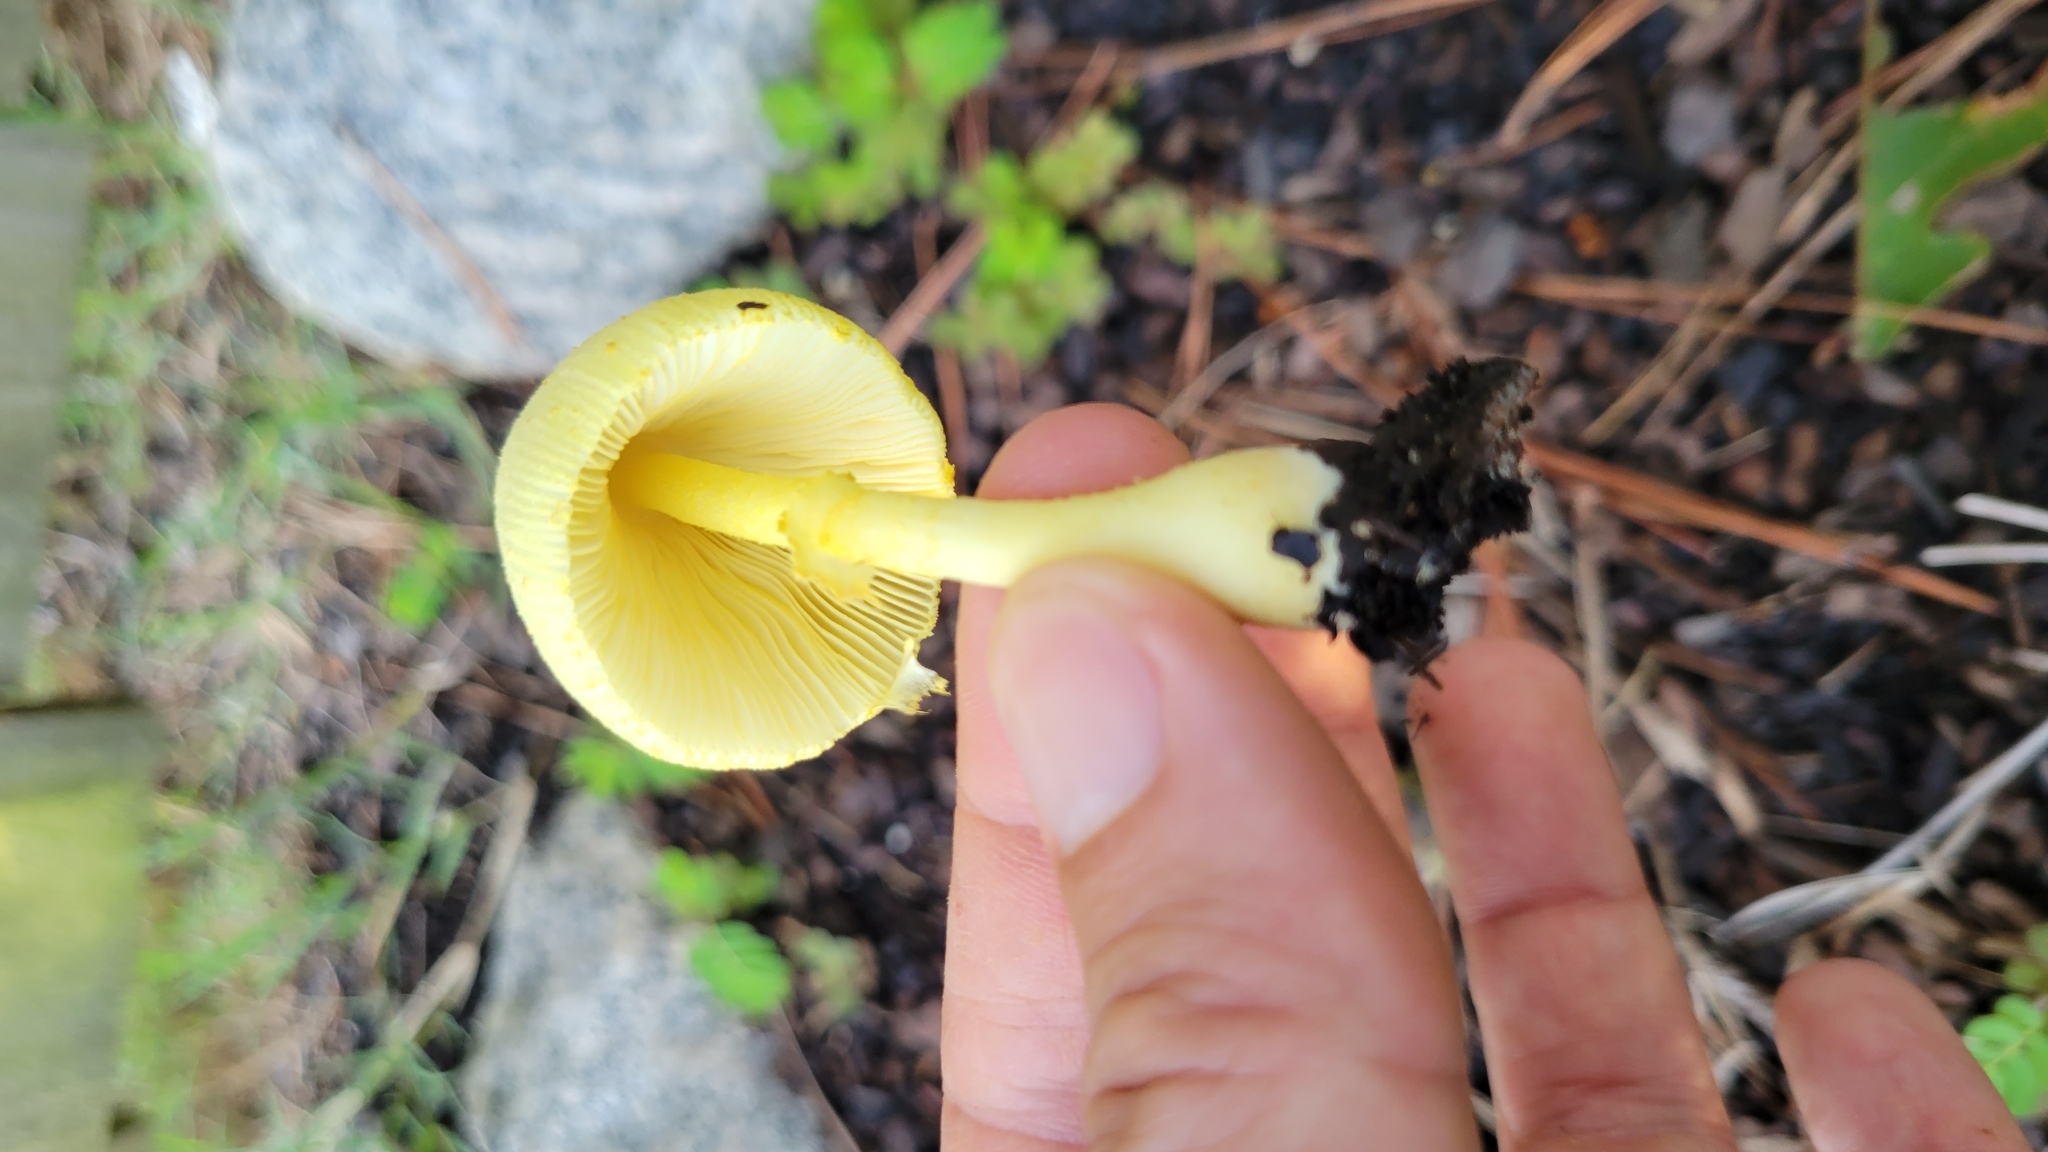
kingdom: Fungi
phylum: Basidiomycota
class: Agaricomycetes
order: Agaricales
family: Agaricaceae
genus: Leucocoprinus
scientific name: Leucocoprinus birnbaumii
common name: Plantpot dapperling
